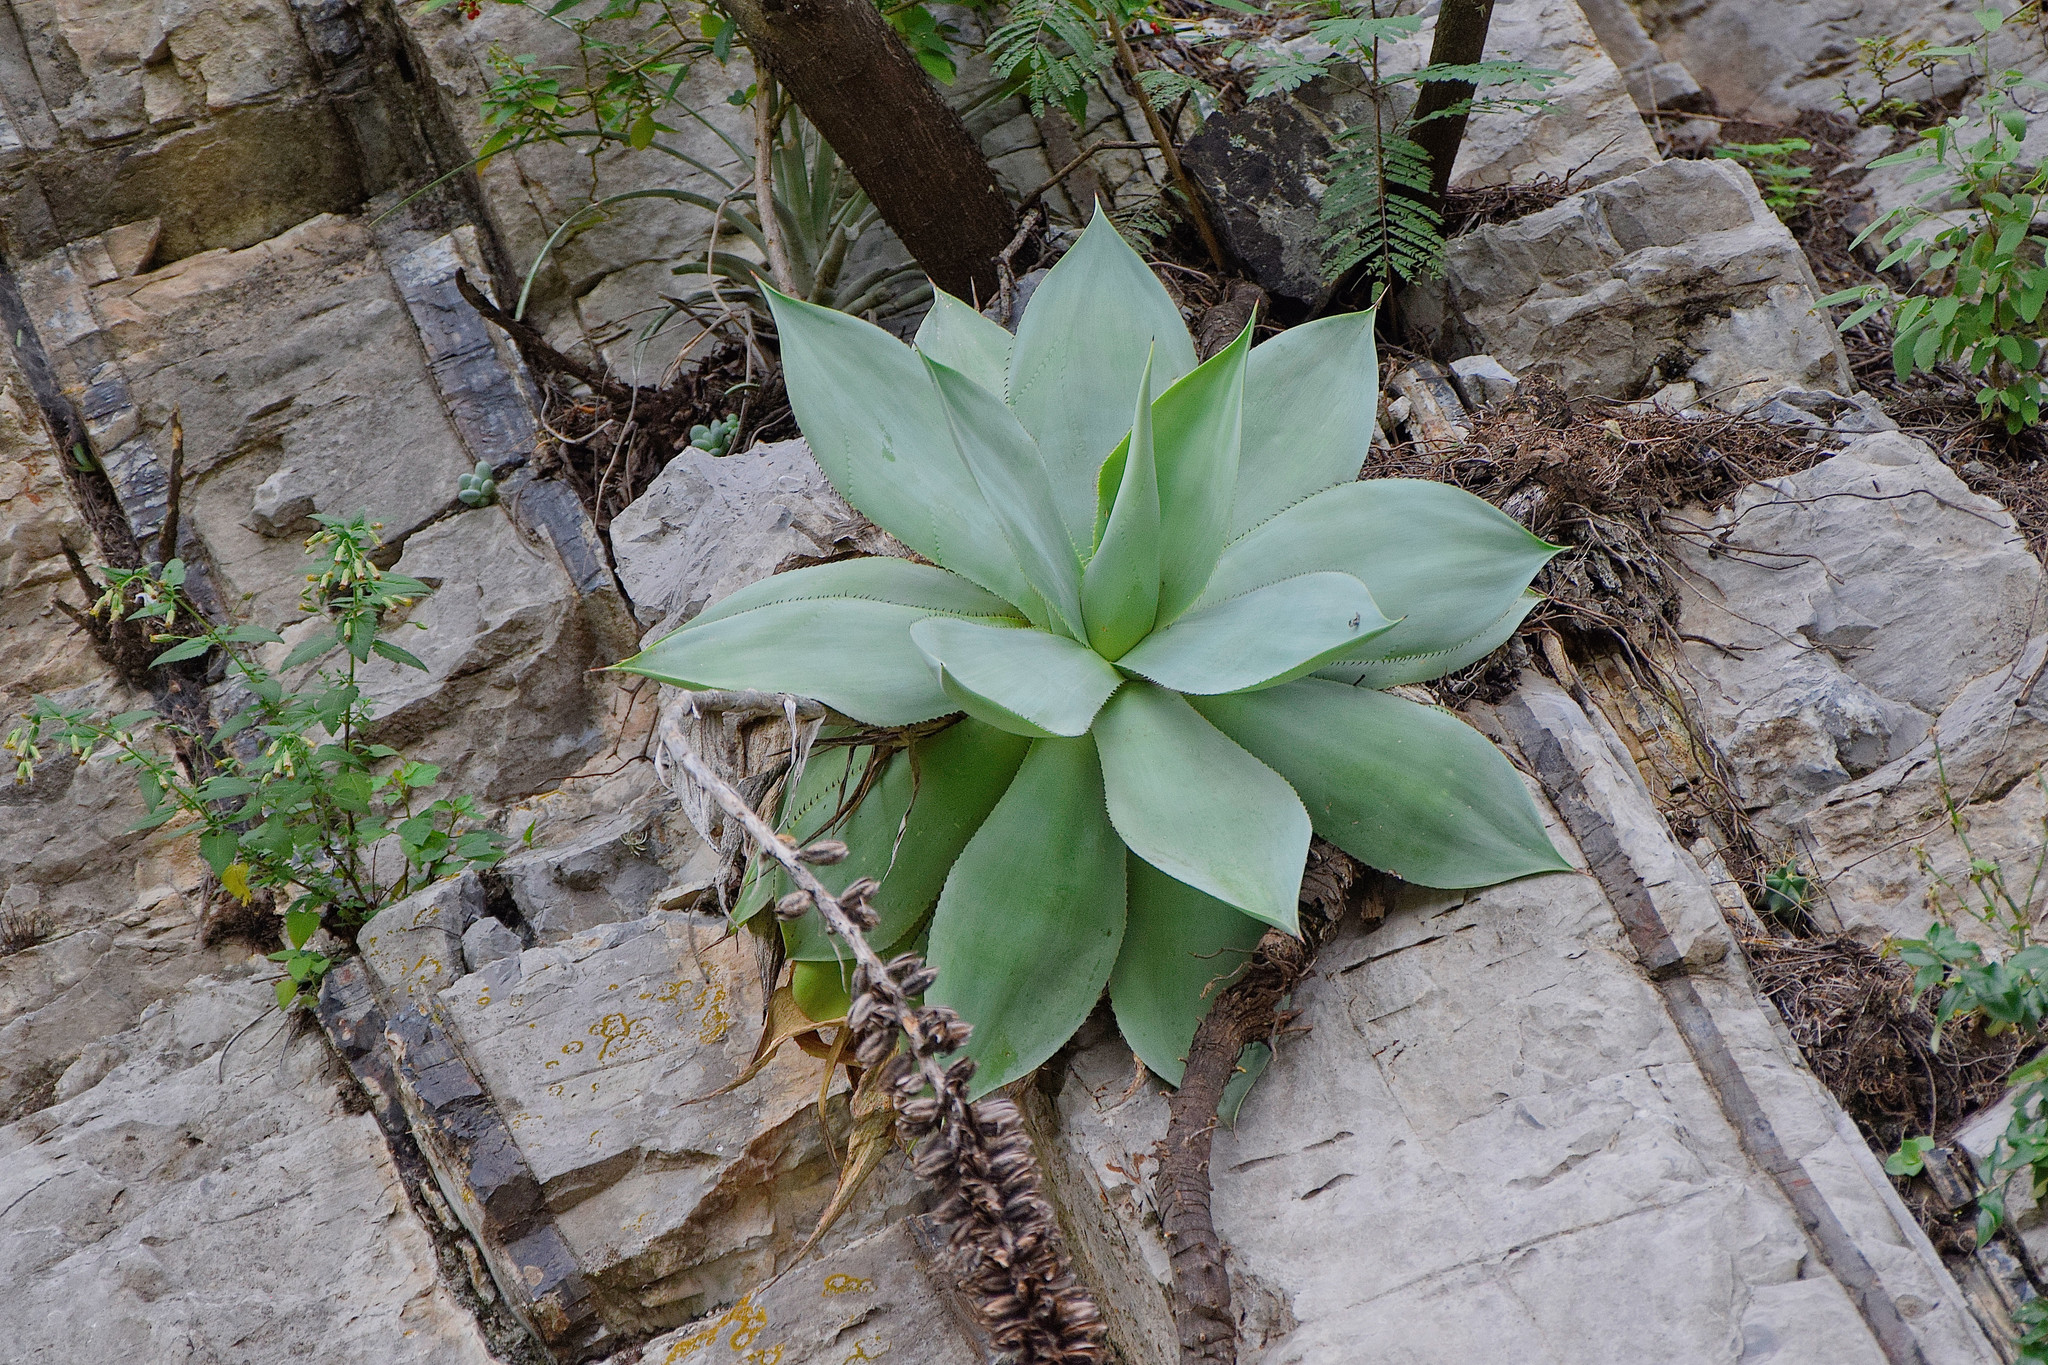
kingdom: Plantae
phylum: Tracheophyta
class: Liliopsida
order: Asparagales
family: Asparagaceae
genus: Agave
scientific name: Agave mitis
